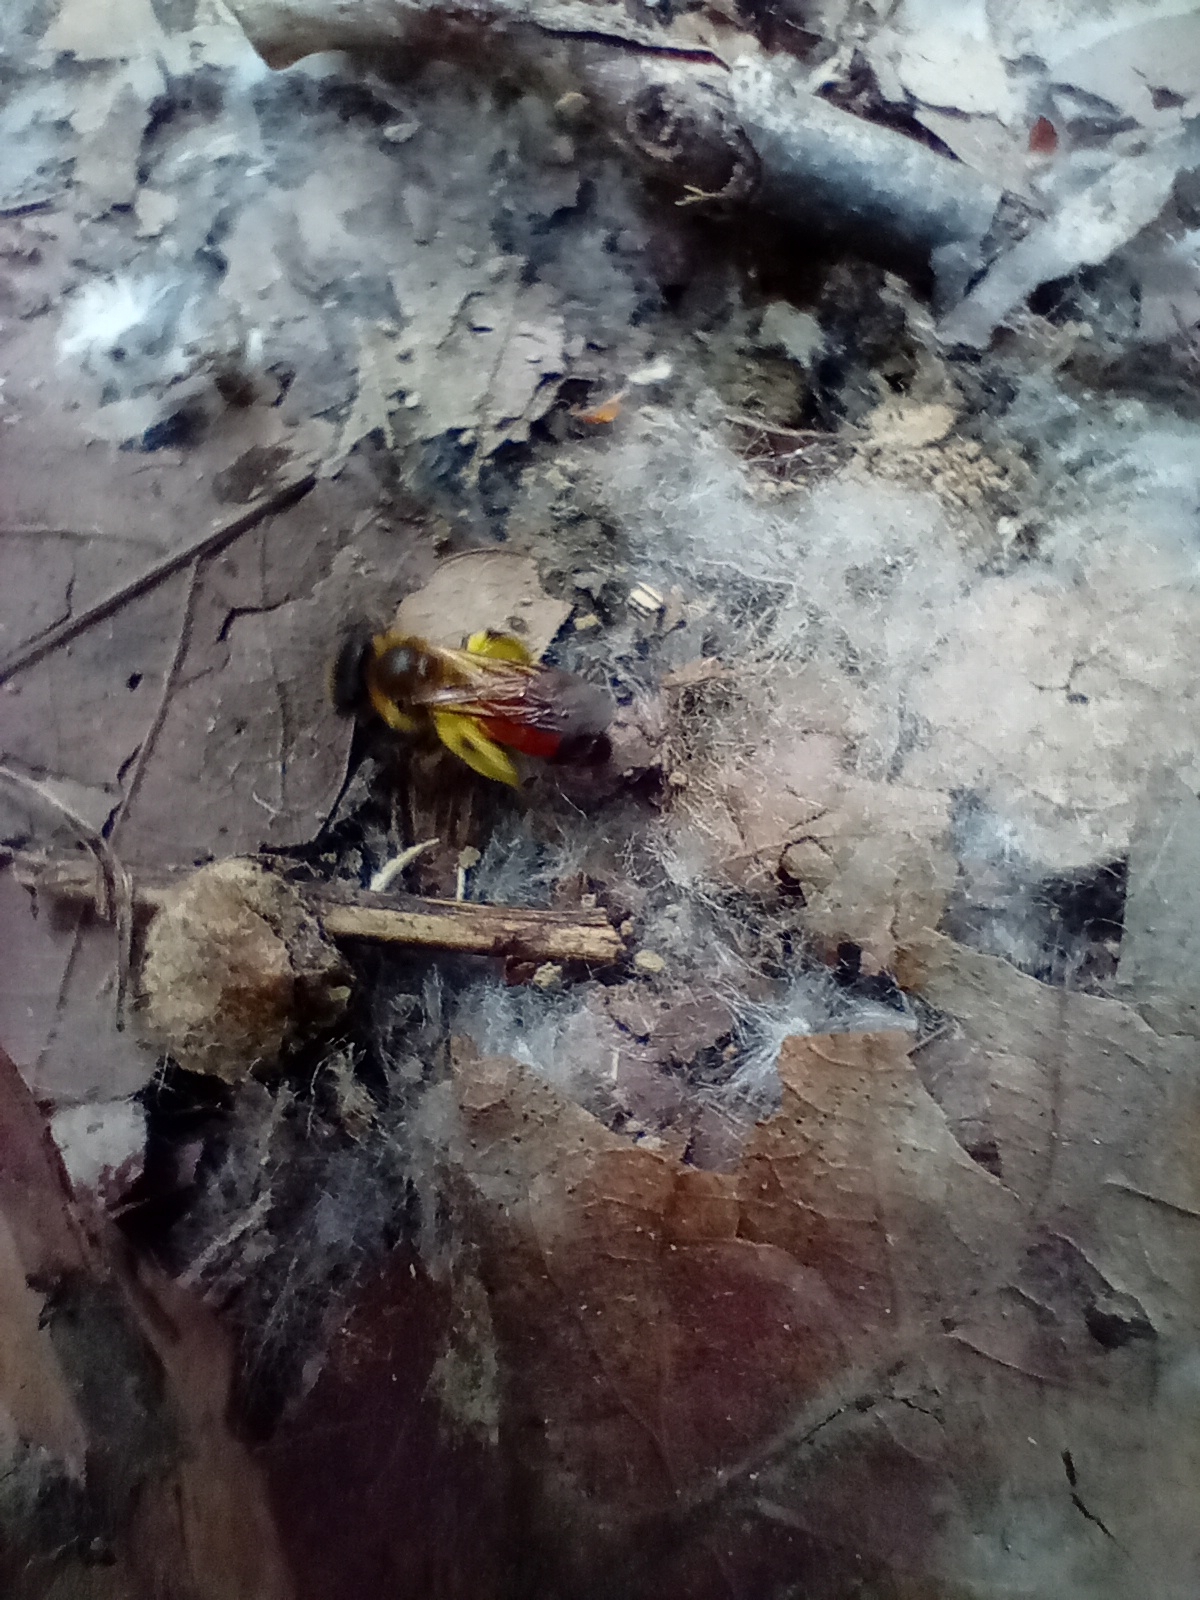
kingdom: Animalia
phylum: Arthropoda
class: Insecta
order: Hymenoptera
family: Andrenidae
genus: Andrena
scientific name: Andrena florea
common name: Bryony mining bee
